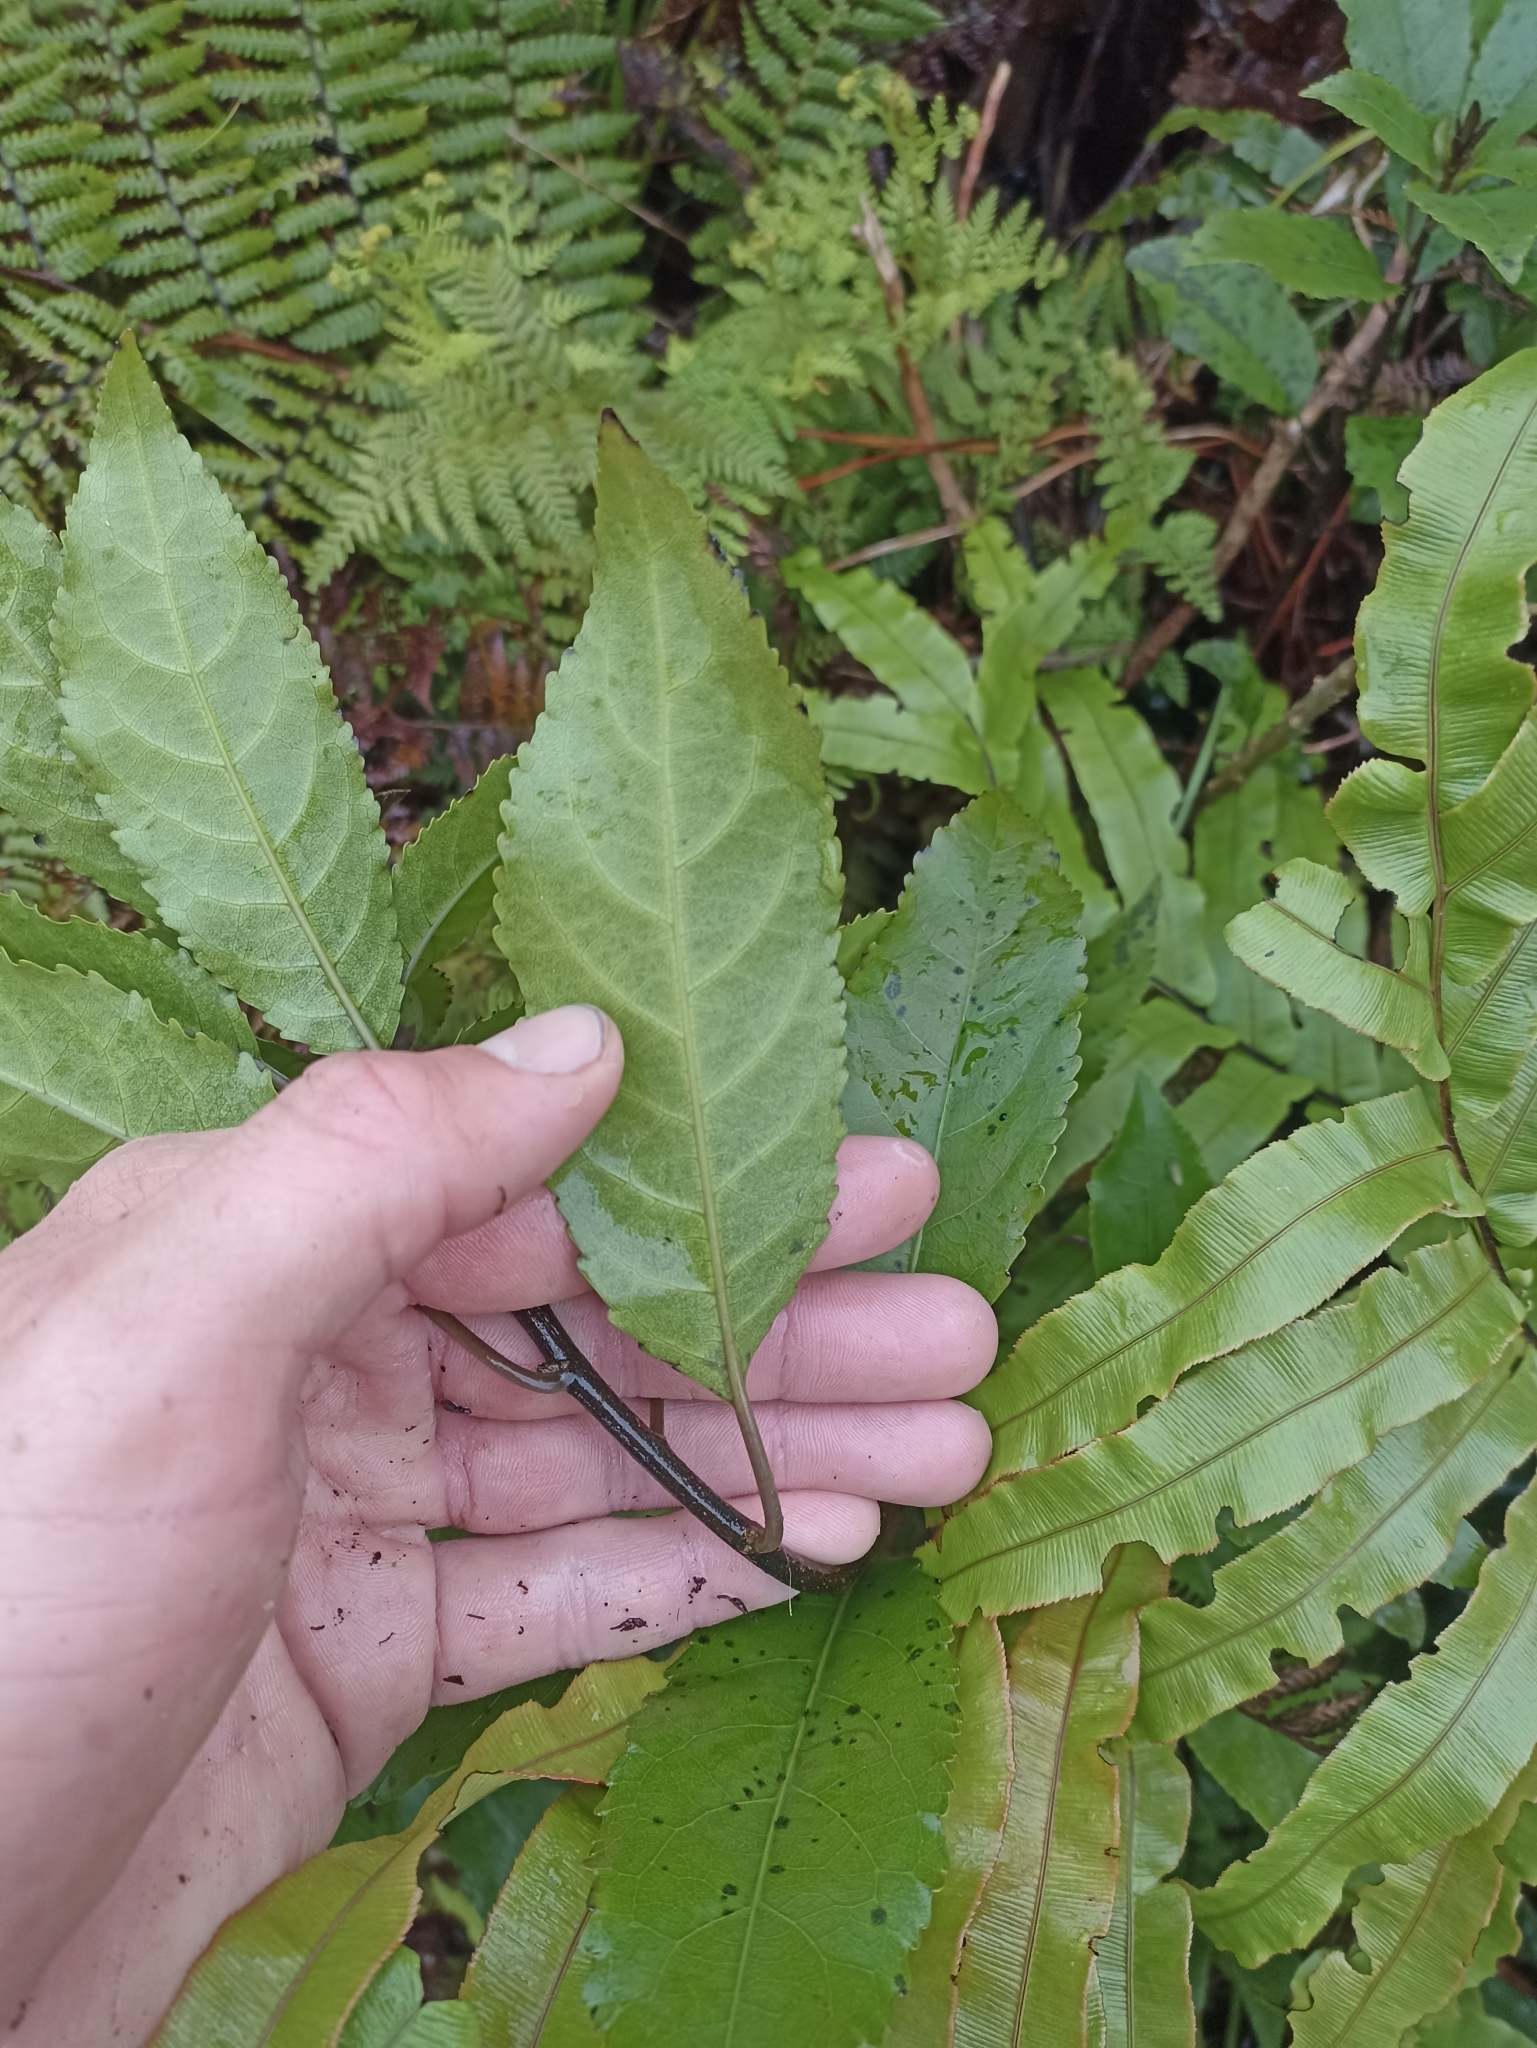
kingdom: Plantae
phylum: Tracheophyta
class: Magnoliopsida
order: Malpighiales
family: Violaceae
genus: Melicytus
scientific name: Melicytus ramiflorus
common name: Mahoe
